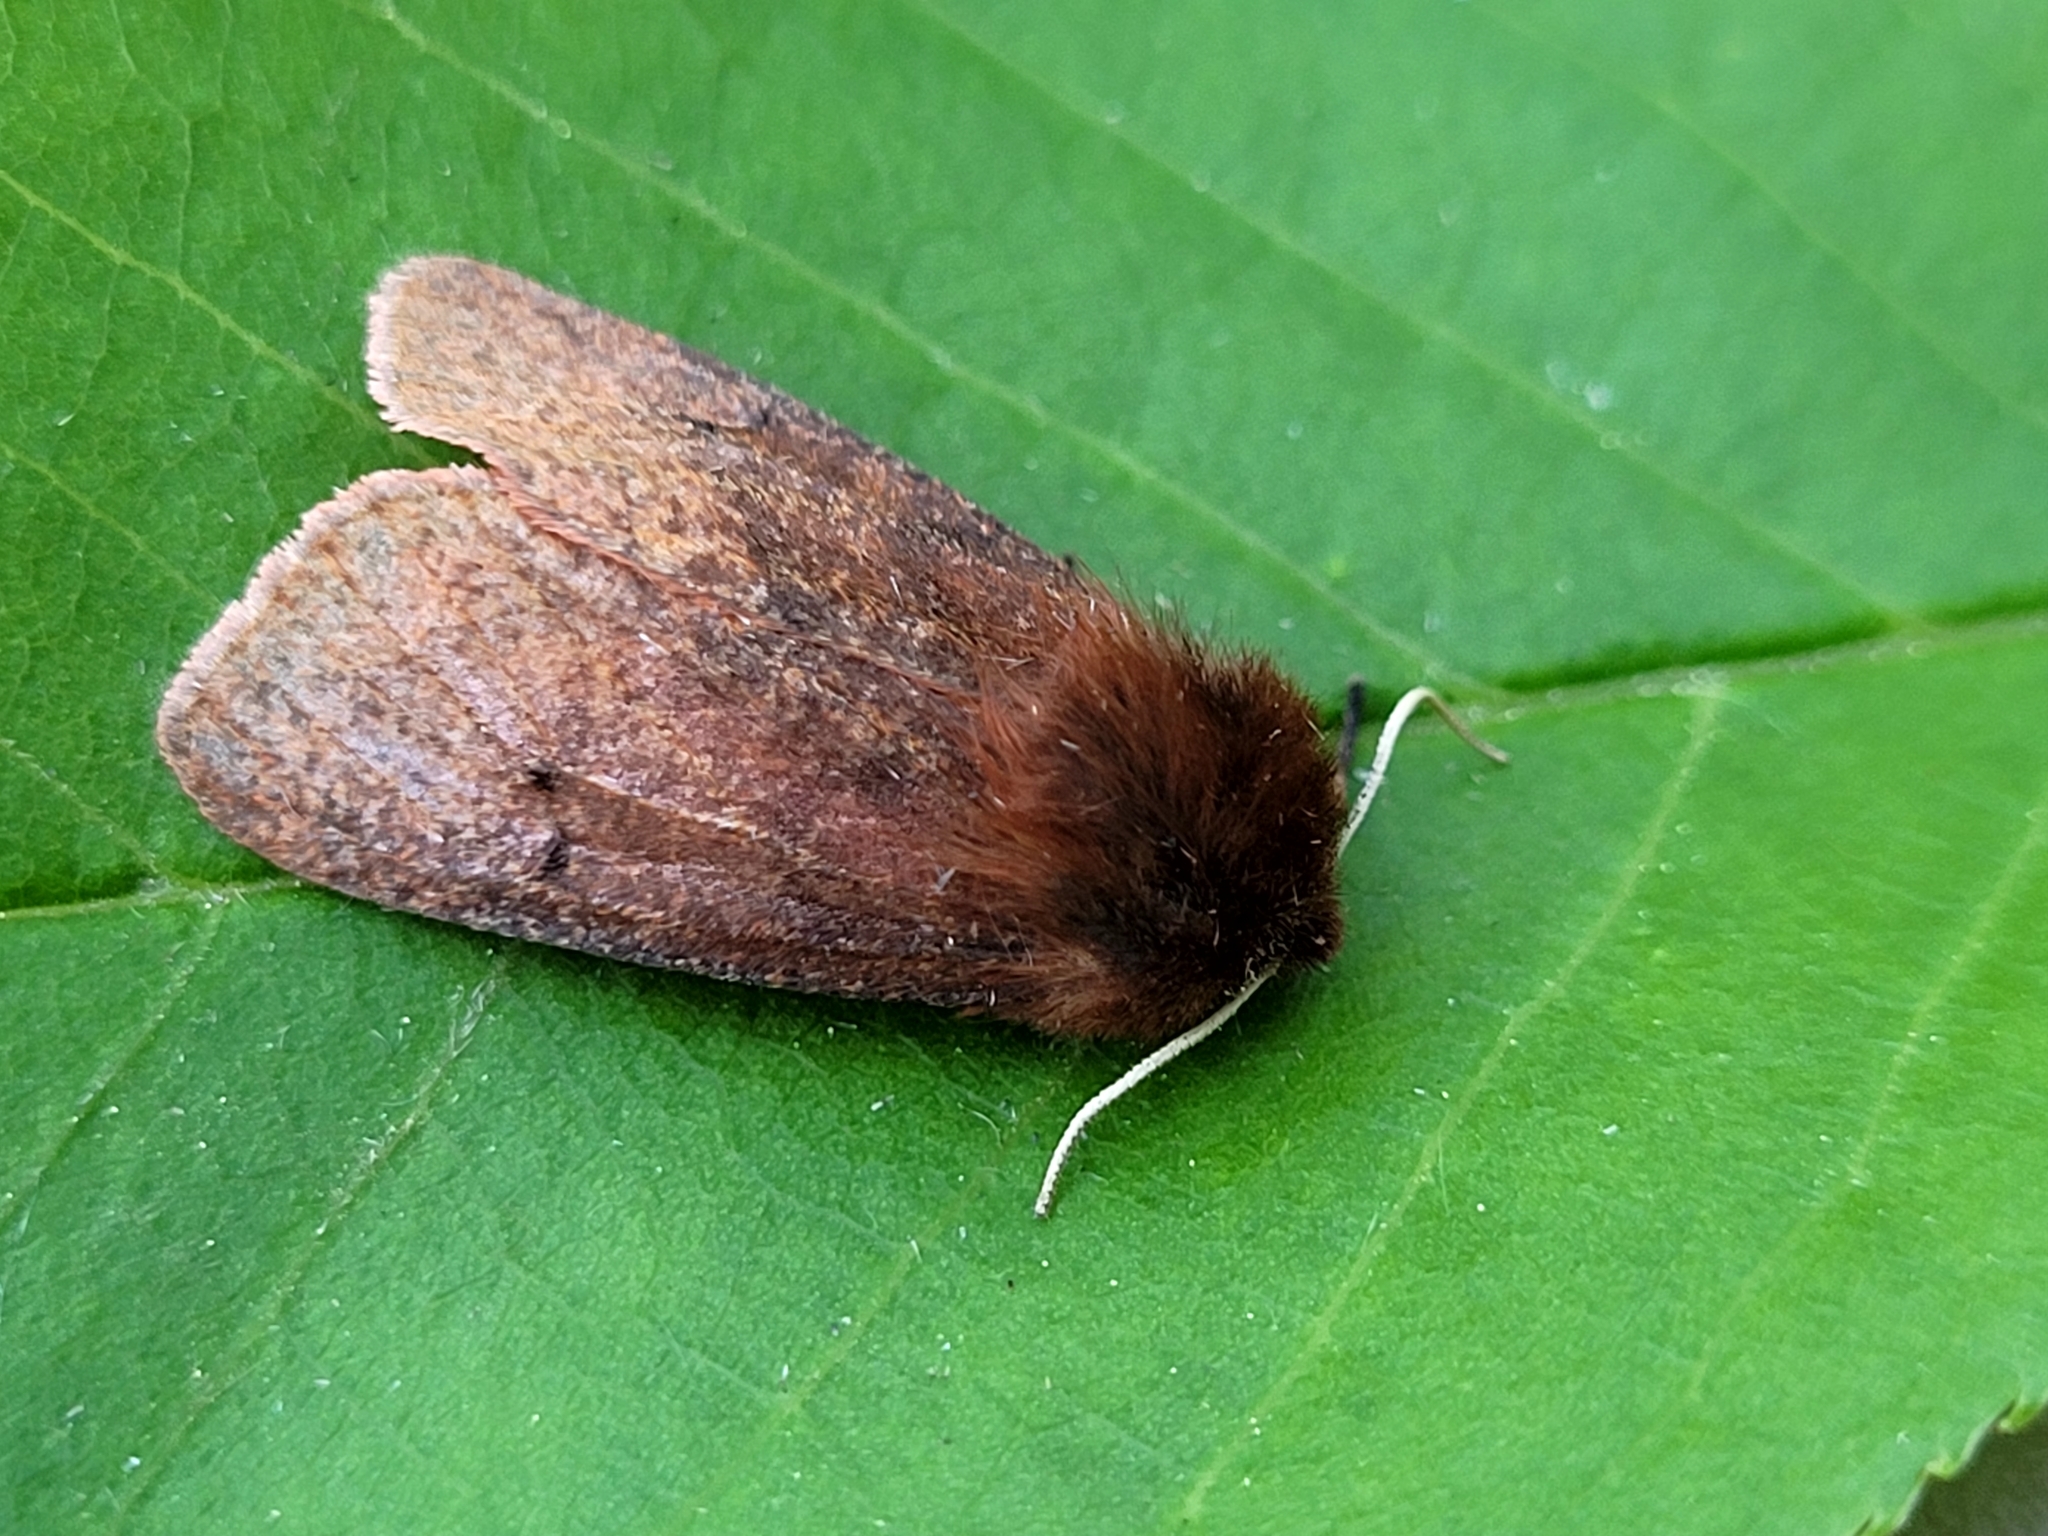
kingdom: Animalia
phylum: Arthropoda
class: Insecta
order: Lepidoptera
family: Erebidae
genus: Phragmatobia
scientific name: Phragmatobia assimilans
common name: Large ruby tiger moth
